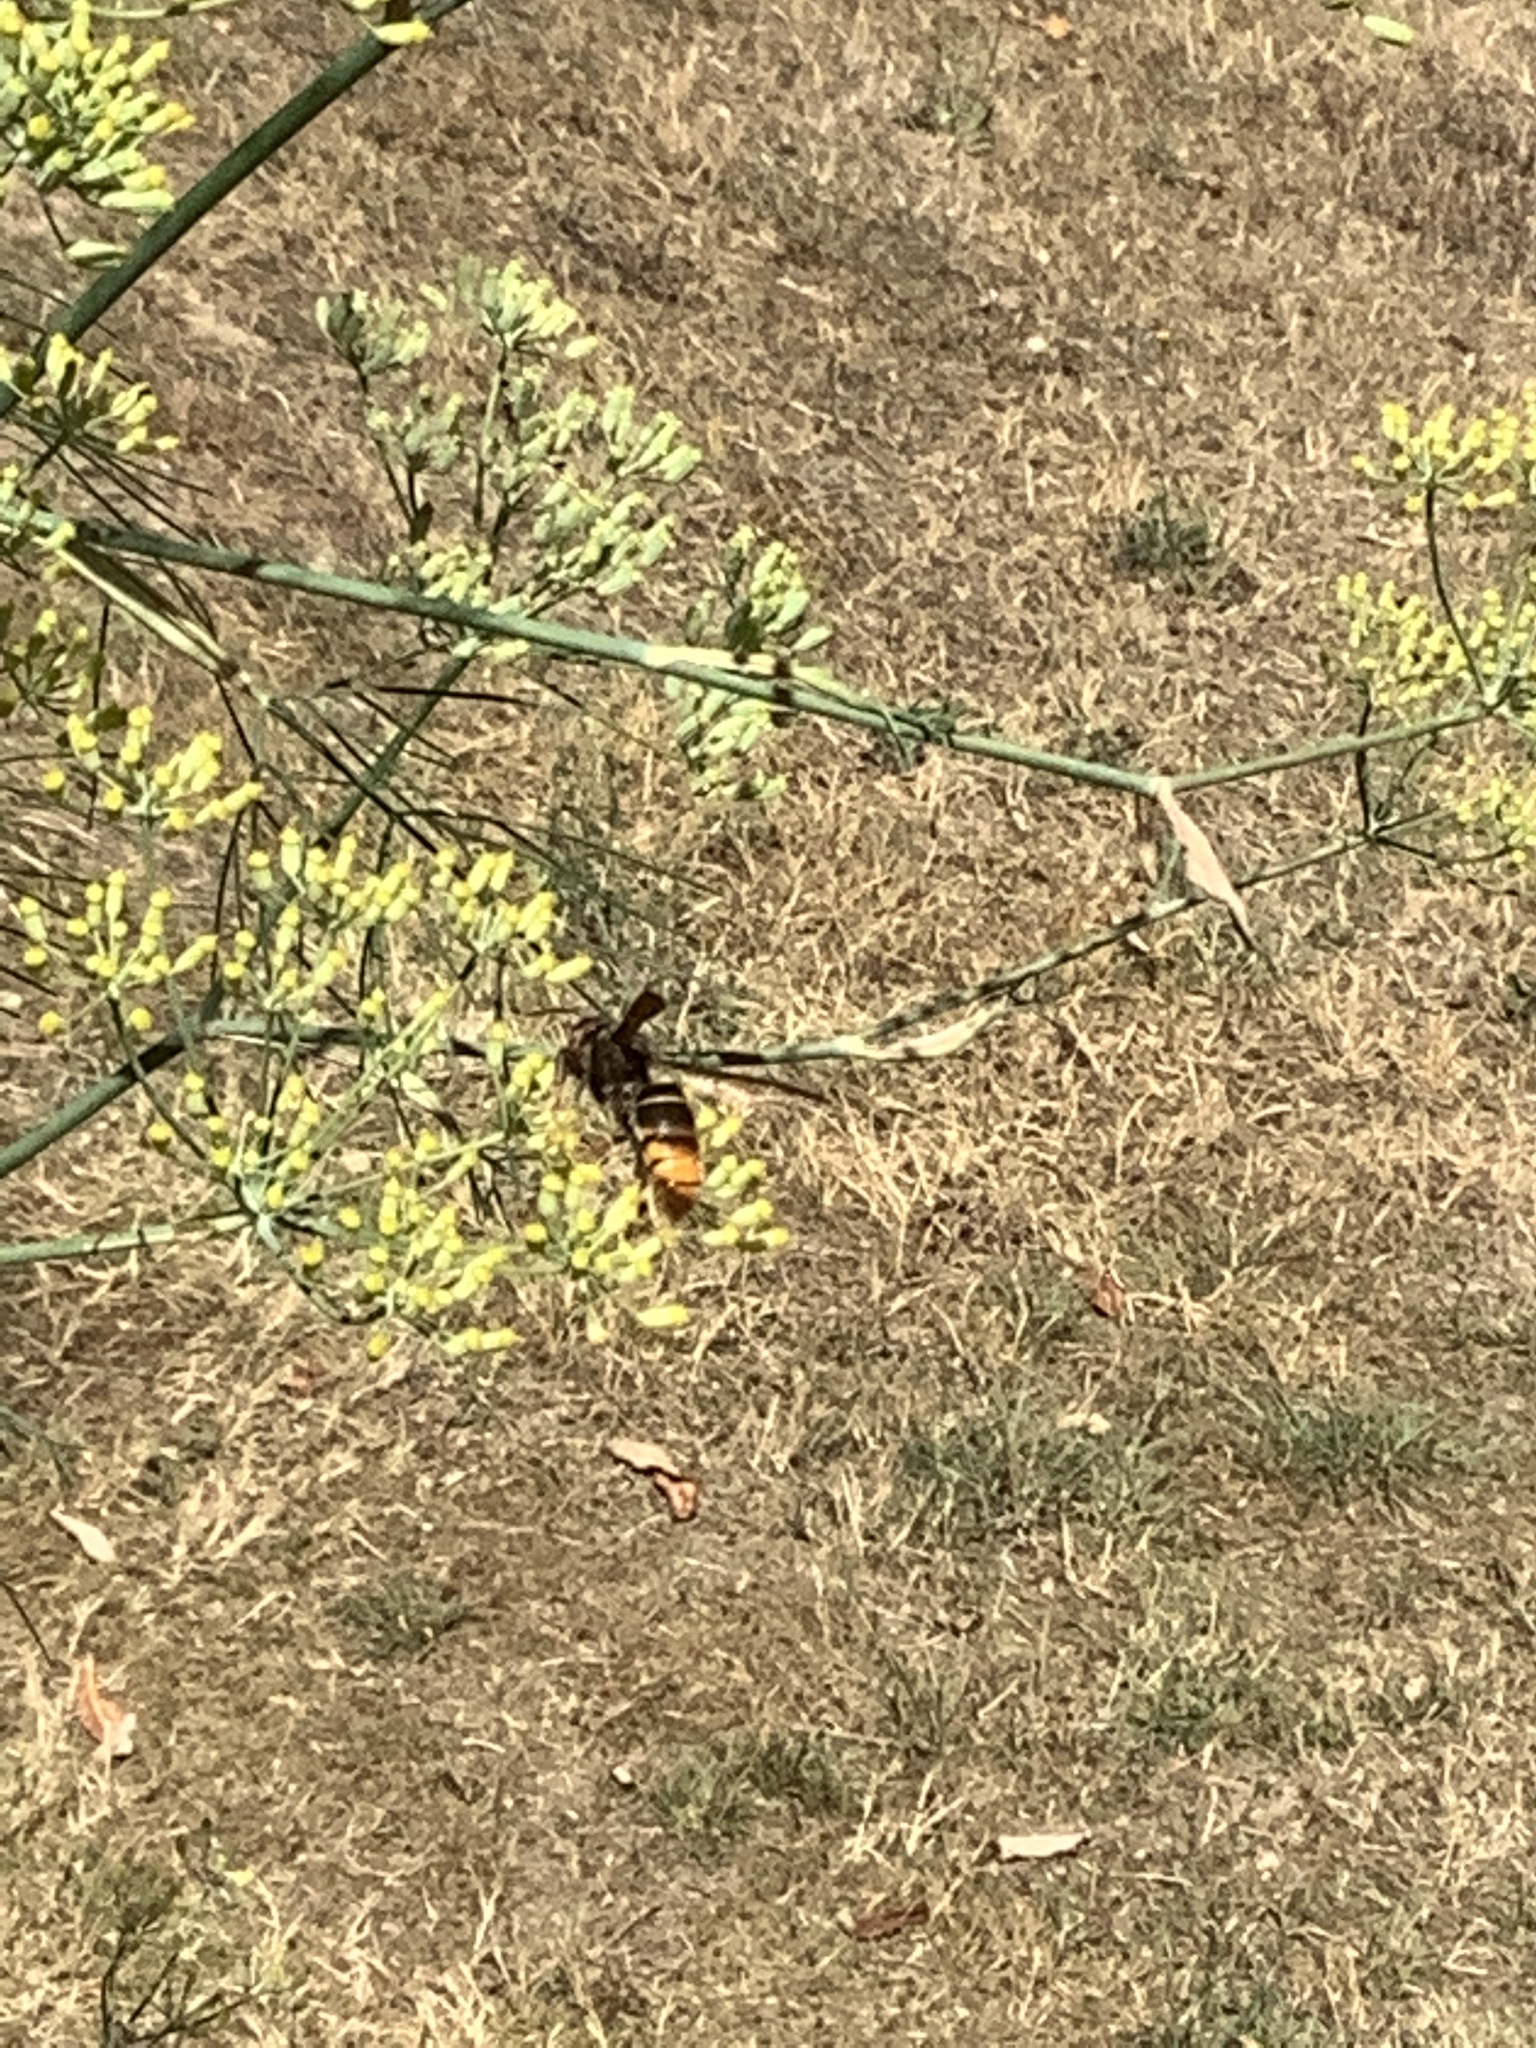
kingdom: Animalia
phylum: Arthropoda
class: Insecta
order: Hymenoptera
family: Vespidae
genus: Vespa
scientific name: Vespa velutina
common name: Asian hornet
